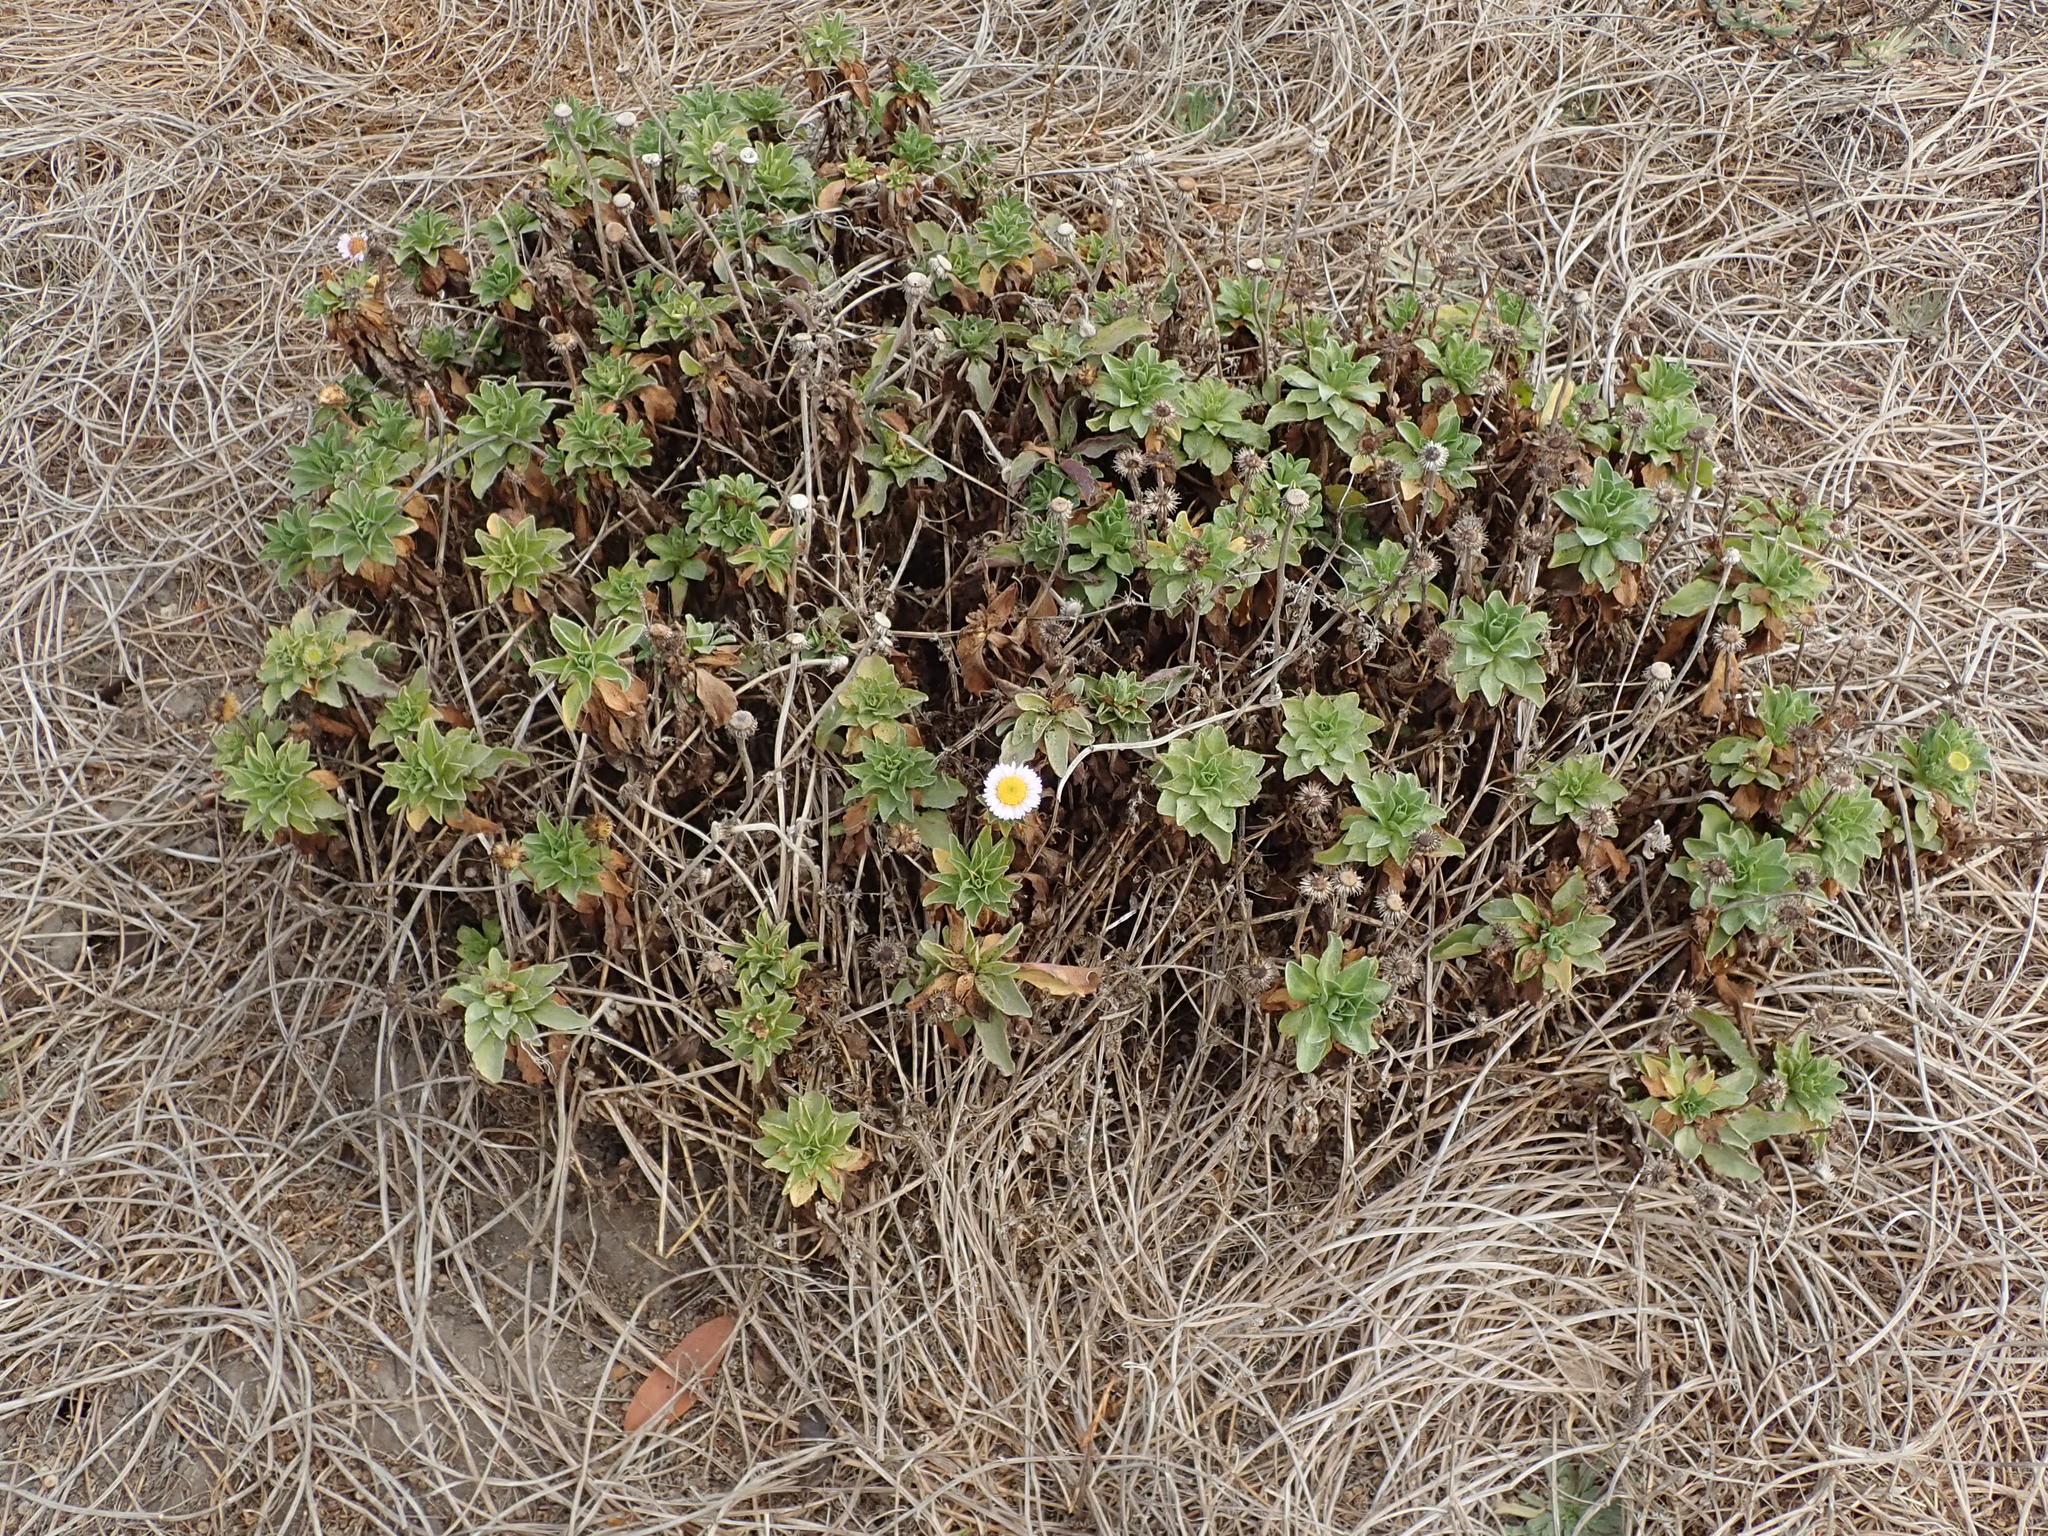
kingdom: Plantae
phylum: Tracheophyta
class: Magnoliopsida
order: Asterales
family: Asteraceae
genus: Erigeron
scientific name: Erigeron glaucus
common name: Seaside daisy
